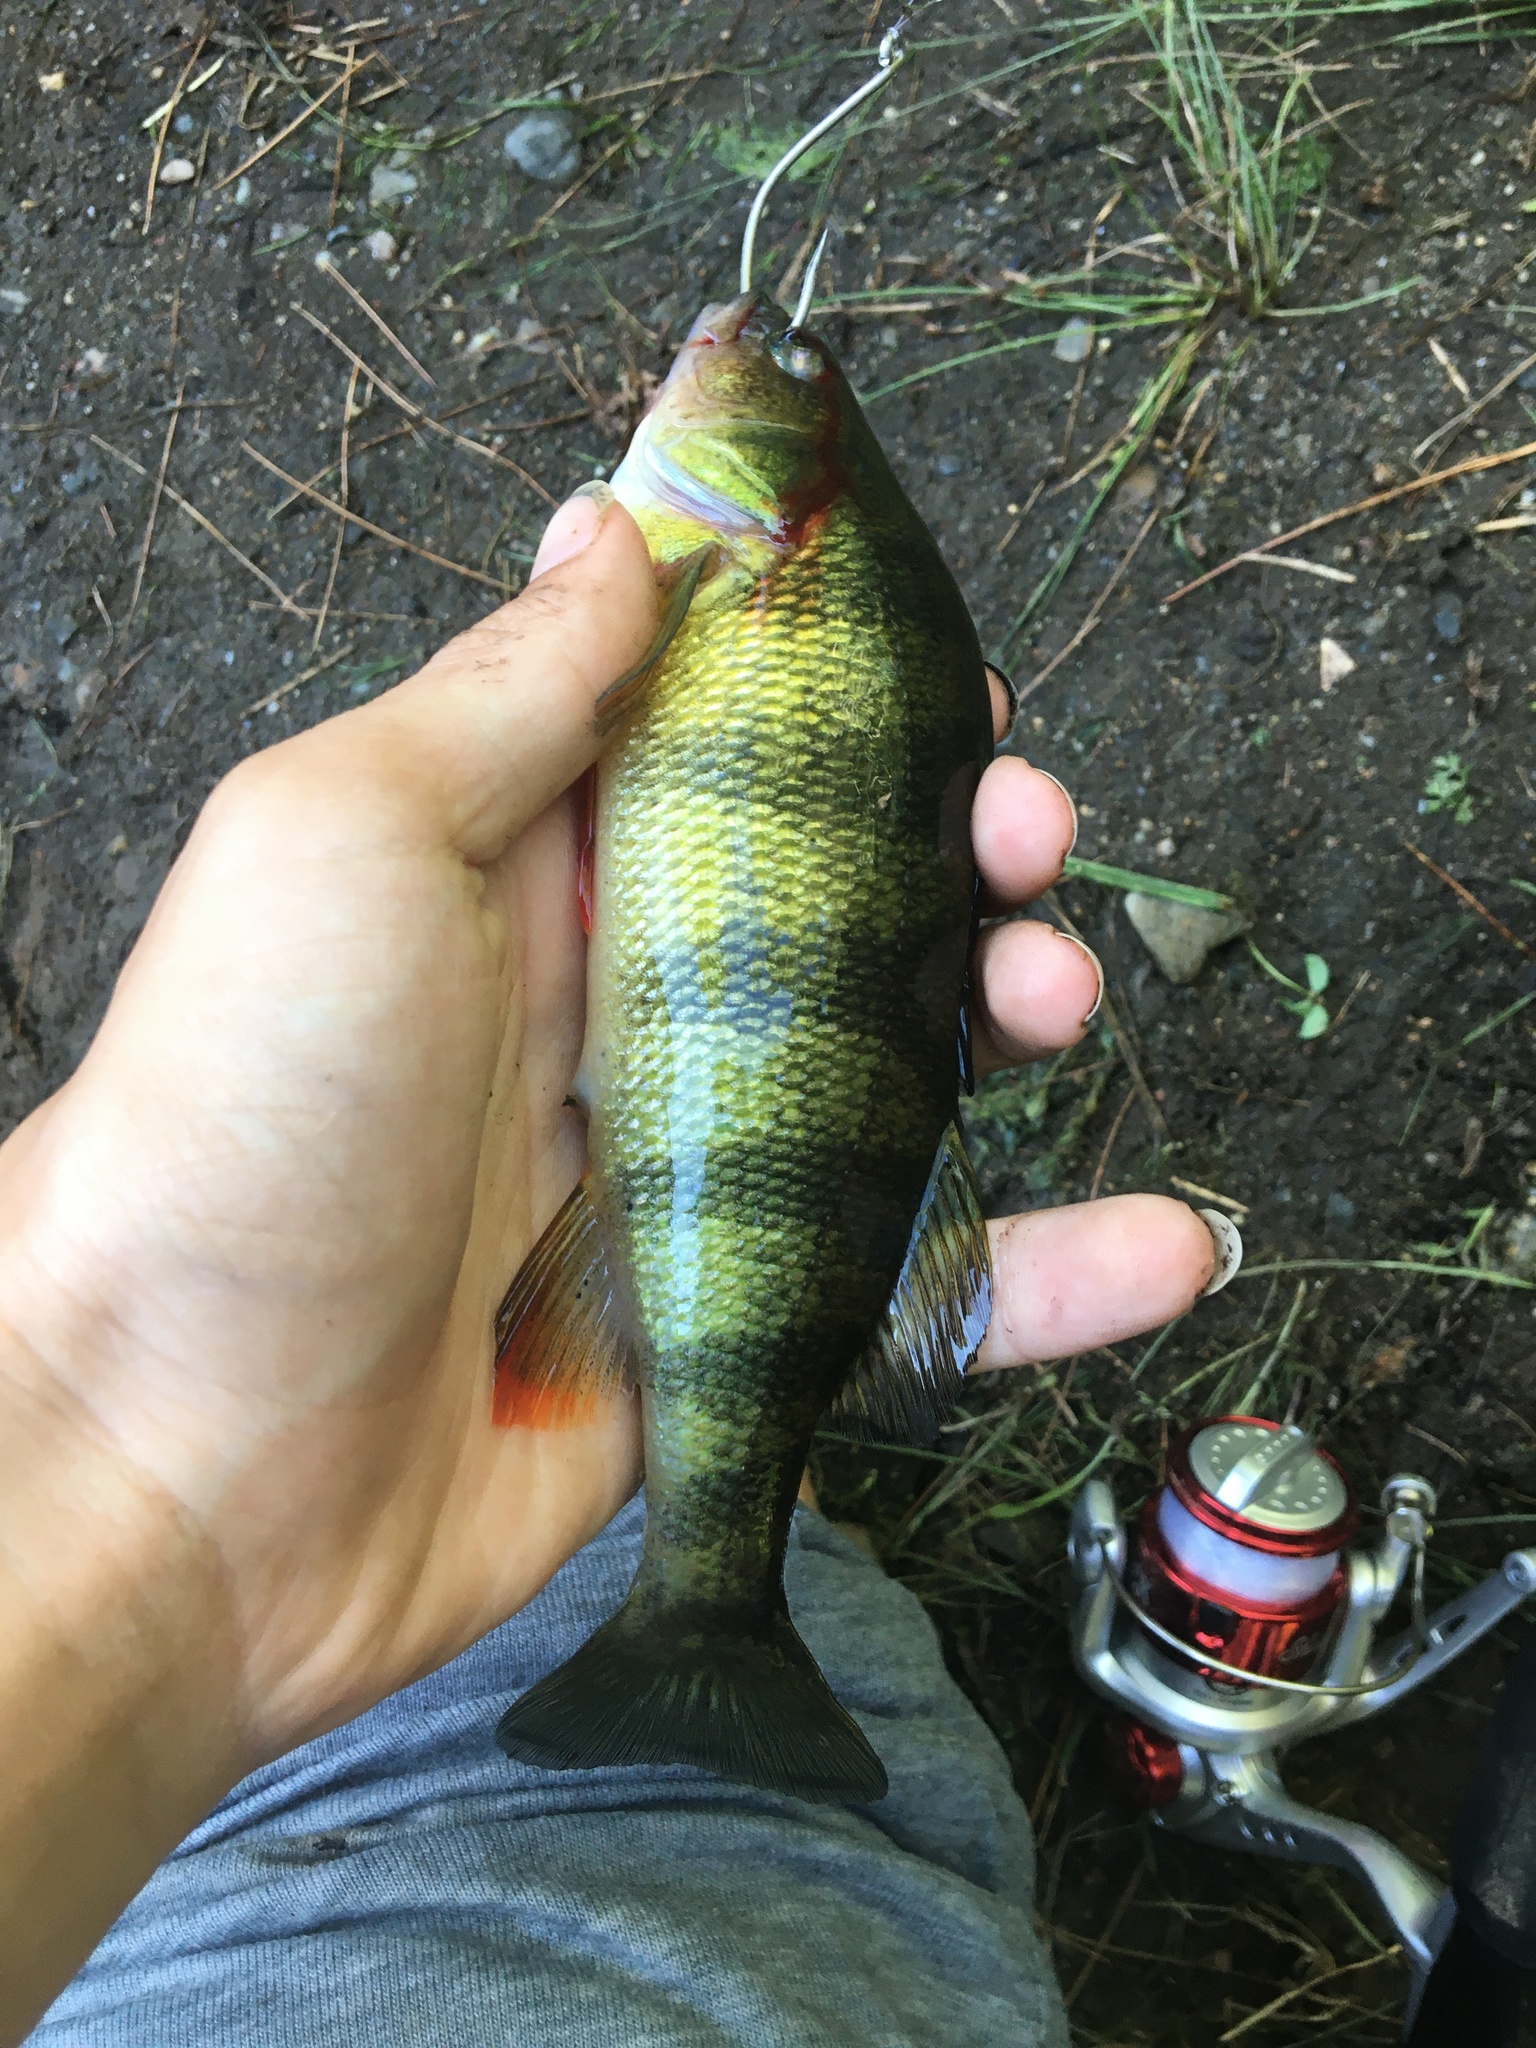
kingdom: Animalia
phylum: Chordata
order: Perciformes
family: Percidae
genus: Perca
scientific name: Perca flavescens
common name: Yellow perch
